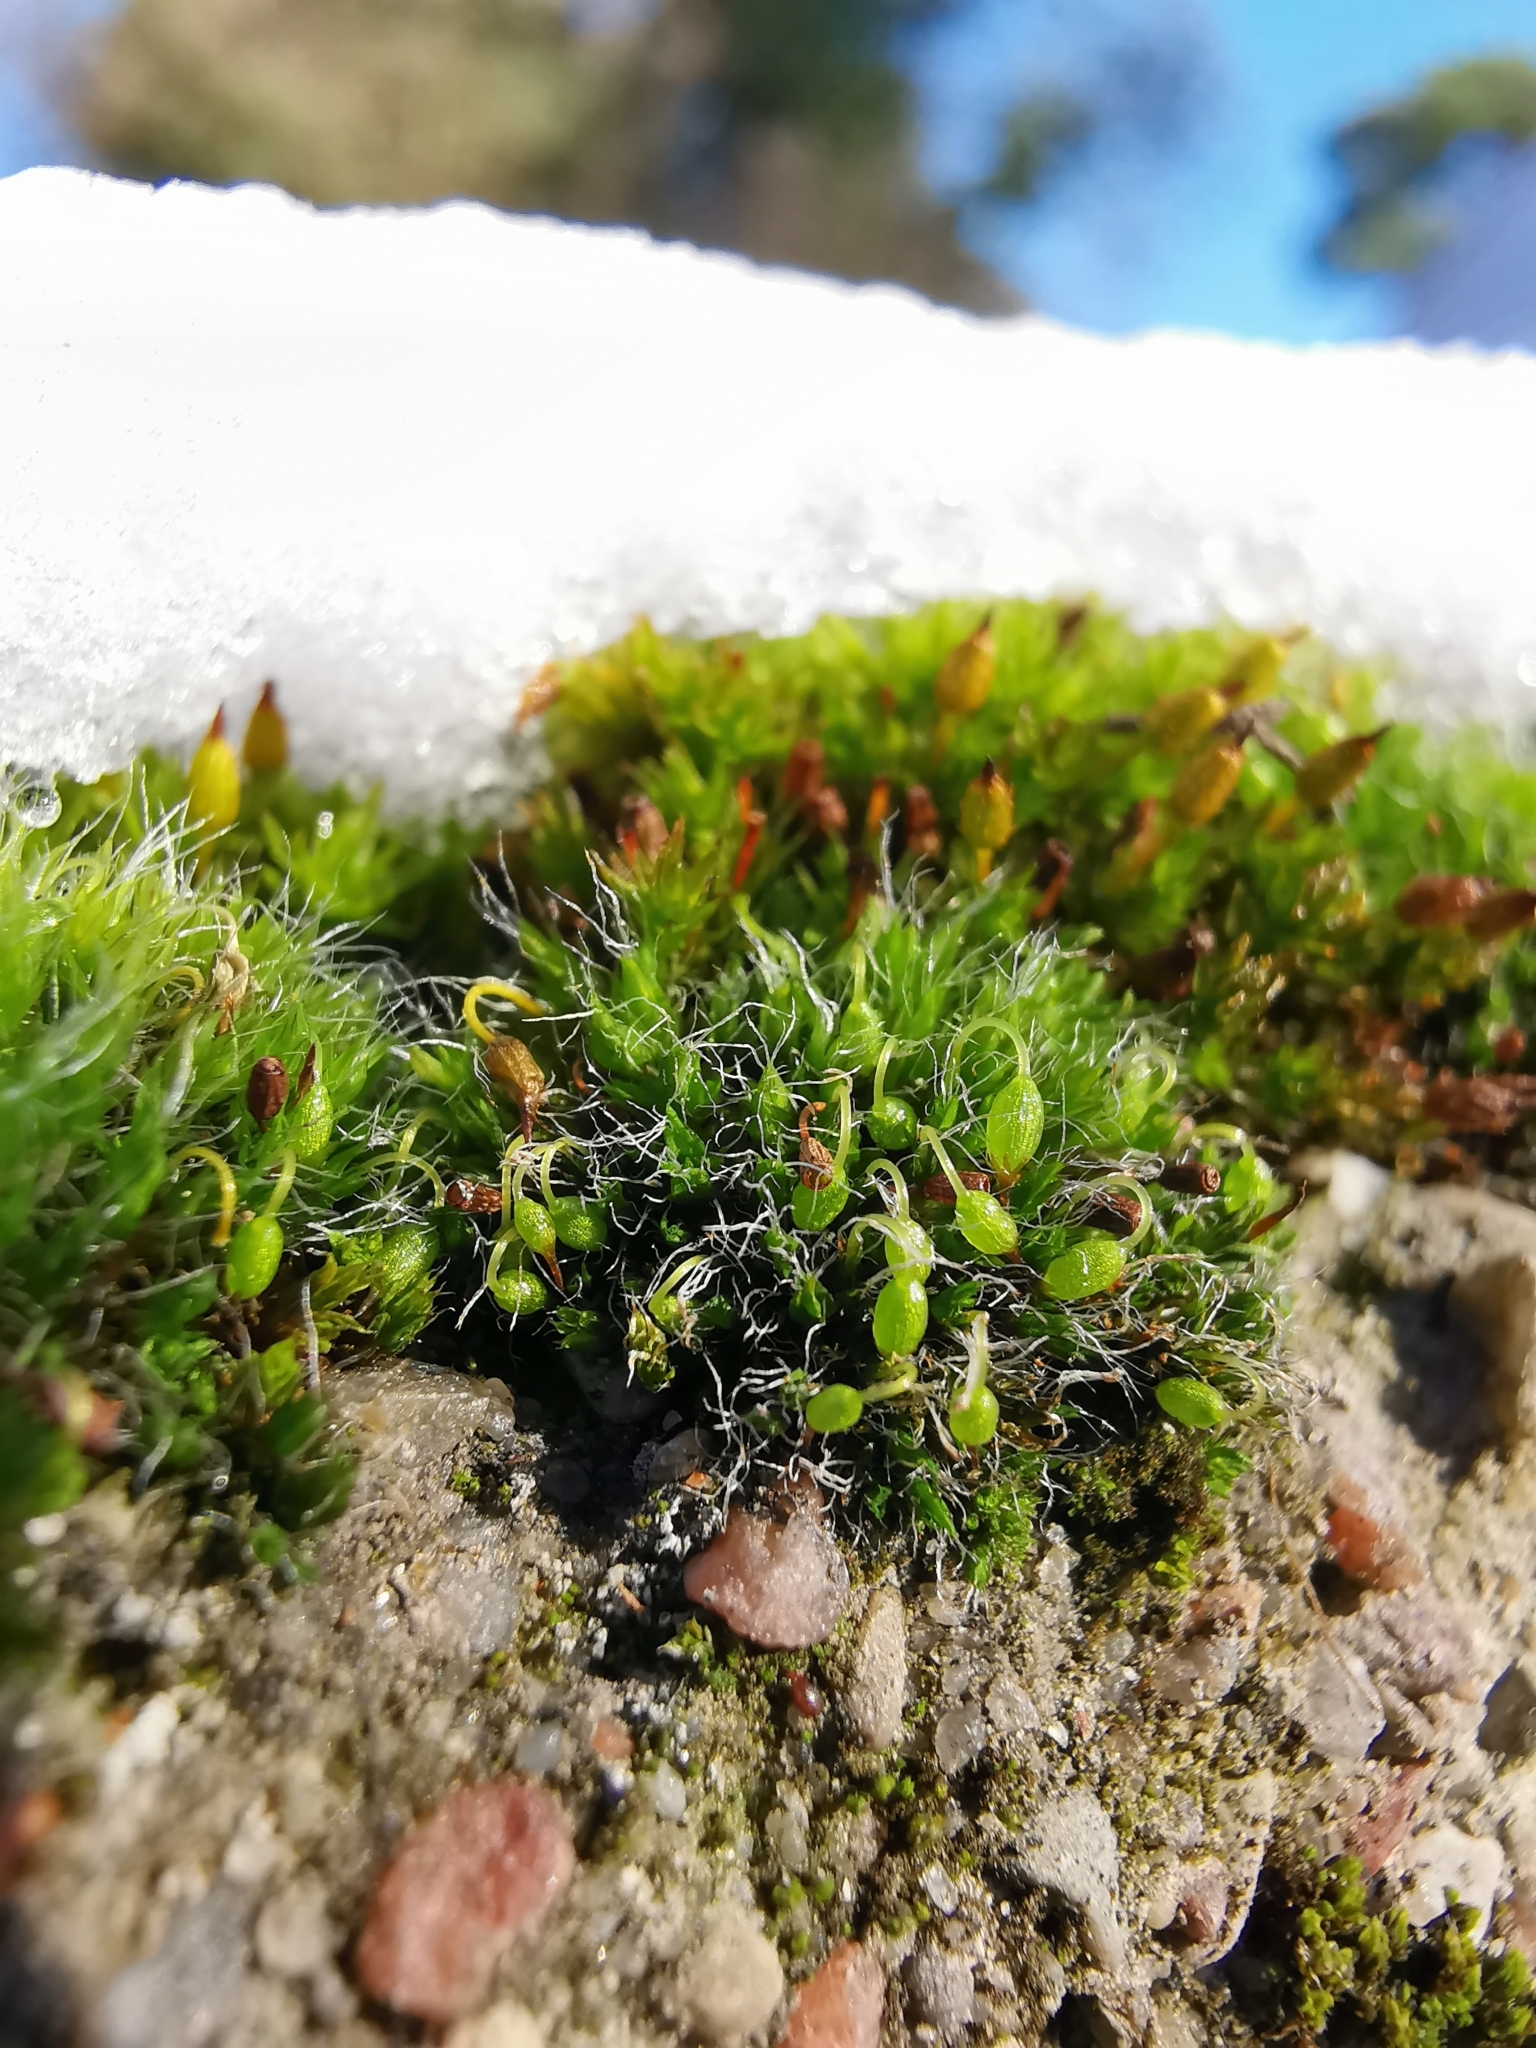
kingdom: Plantae
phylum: Bryophyta
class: Bryopsida
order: Grimmiales
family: Grimmiaceae
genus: Grimmia
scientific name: Grimmia pulvinata
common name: Grey-cushioned grimmia
